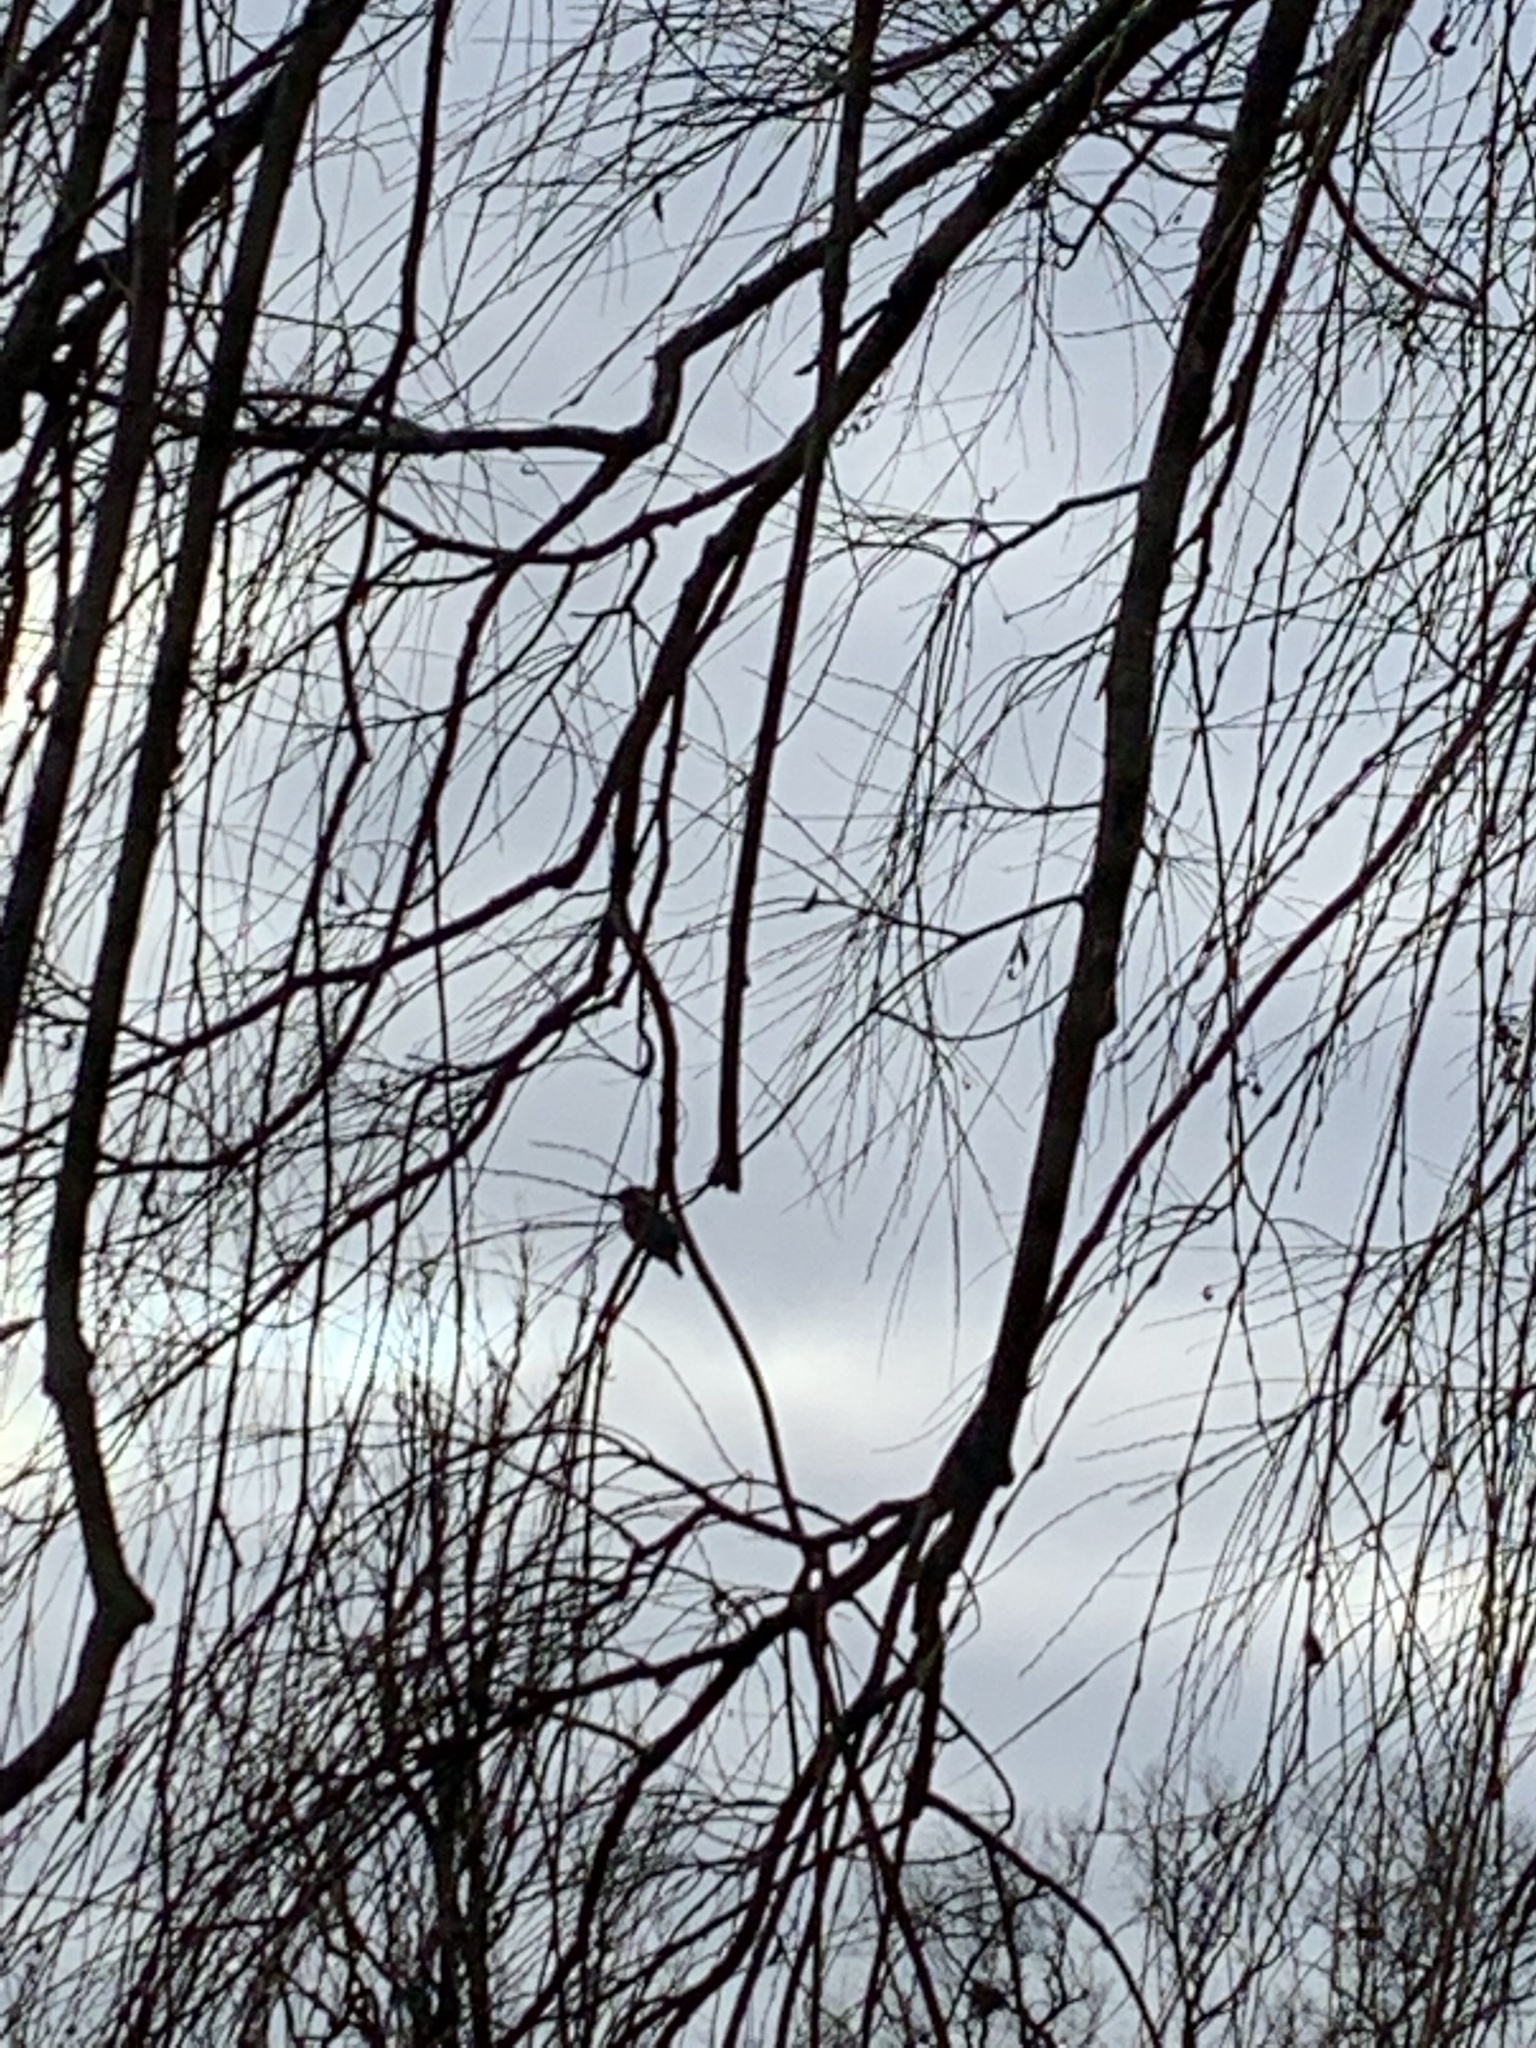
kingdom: Animalia
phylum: Chordata
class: Aves
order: Coraciiformes
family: Alcedinidae
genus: Alcedo
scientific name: Alcedo atthis
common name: Common kingfisher
